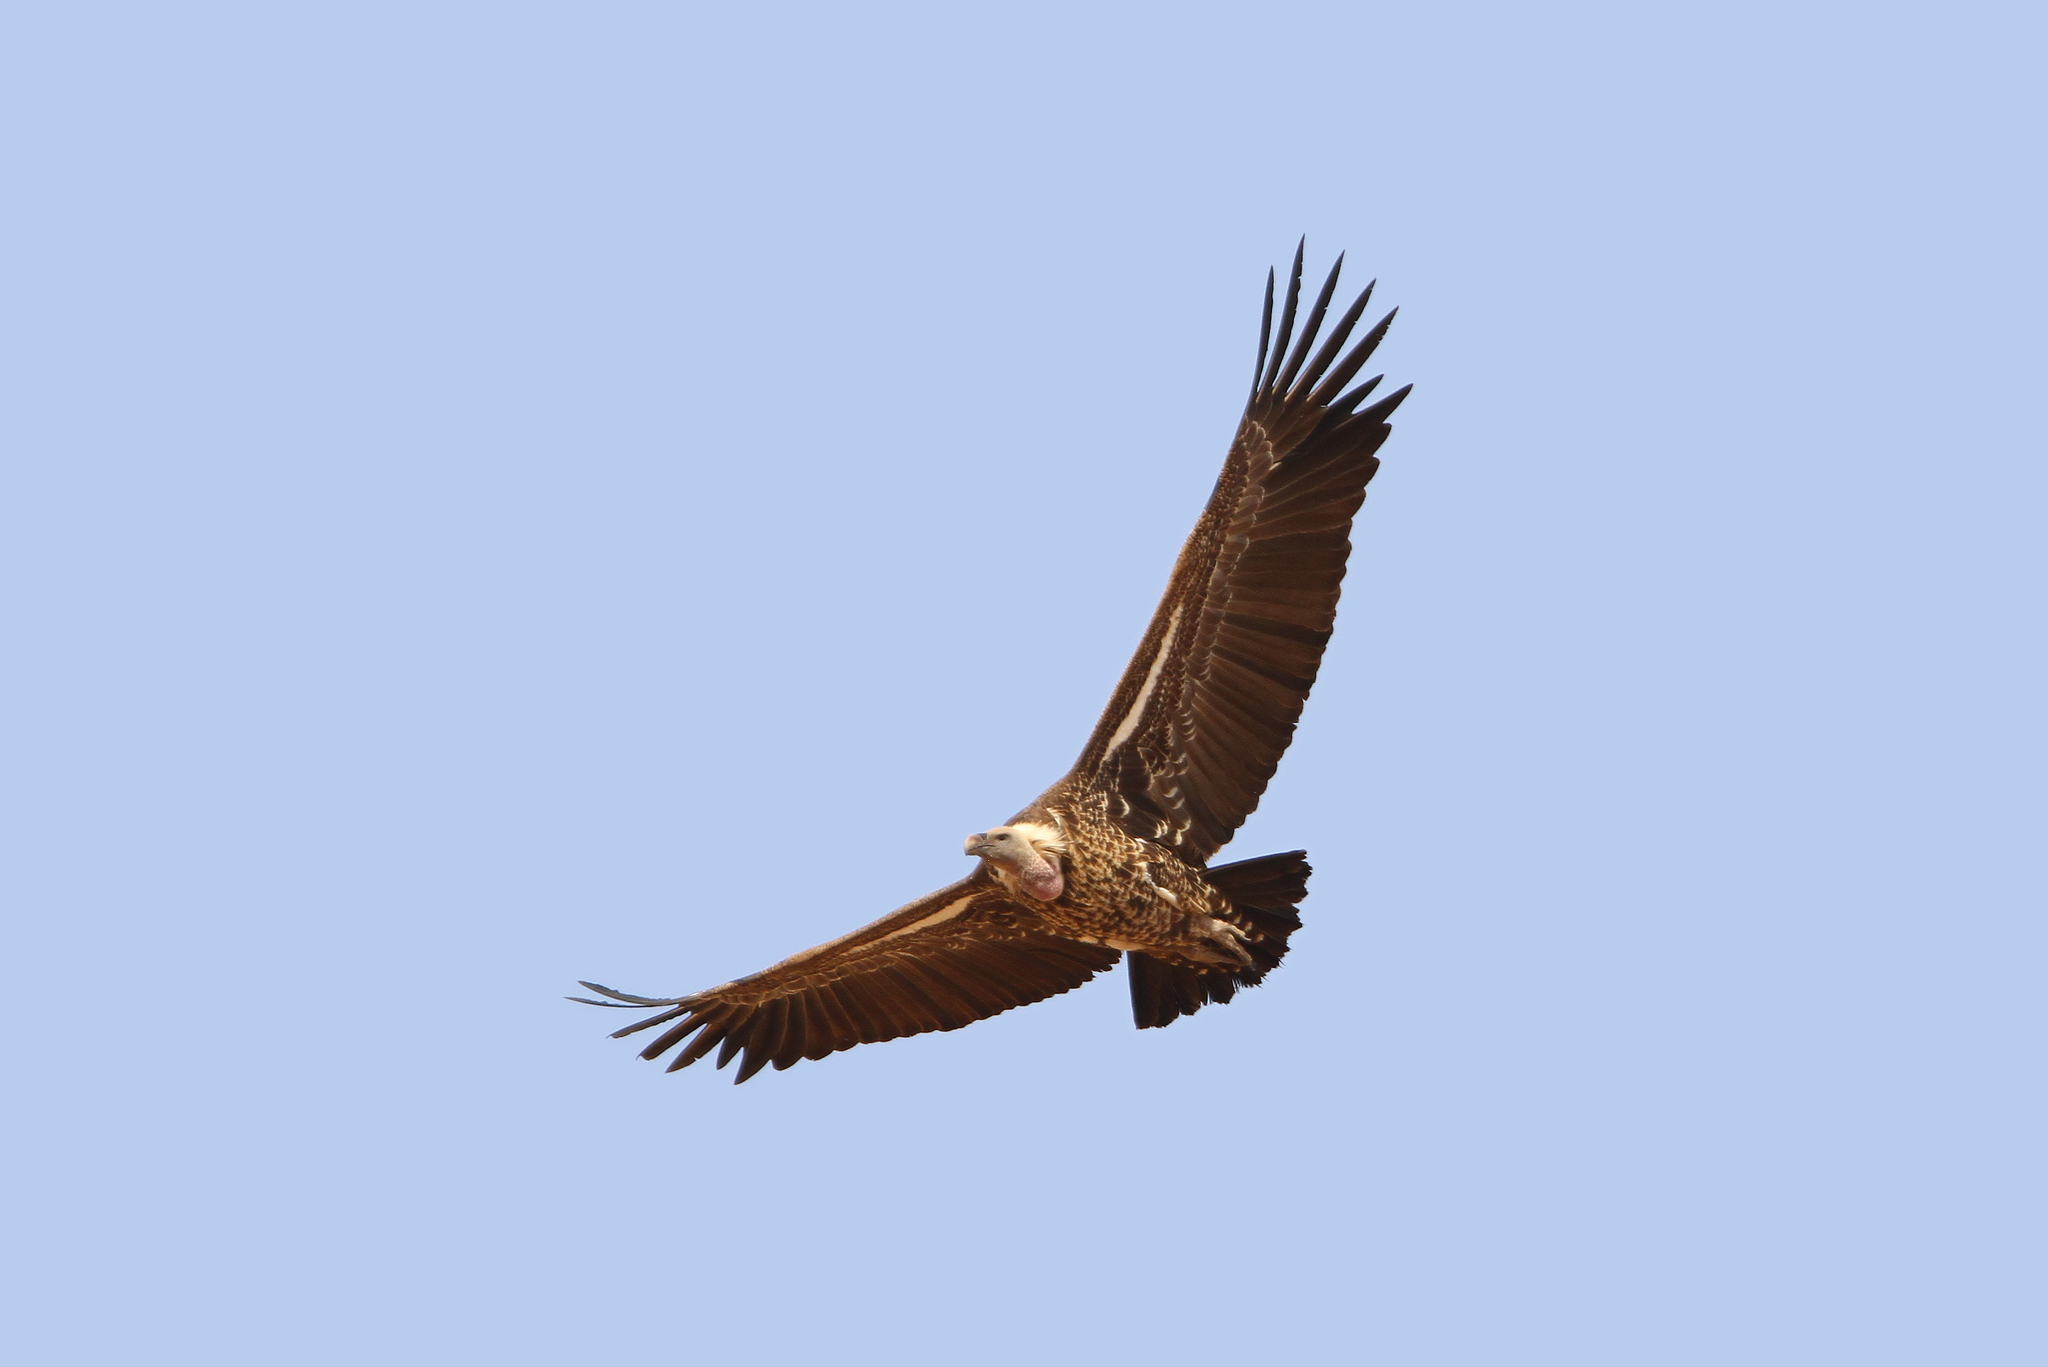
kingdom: Animalia
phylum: Chordata
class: Aves
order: Accipitriformes
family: Accipitridae
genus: Gyps
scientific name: Gyps rueppellii
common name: Rüppell's vulture
